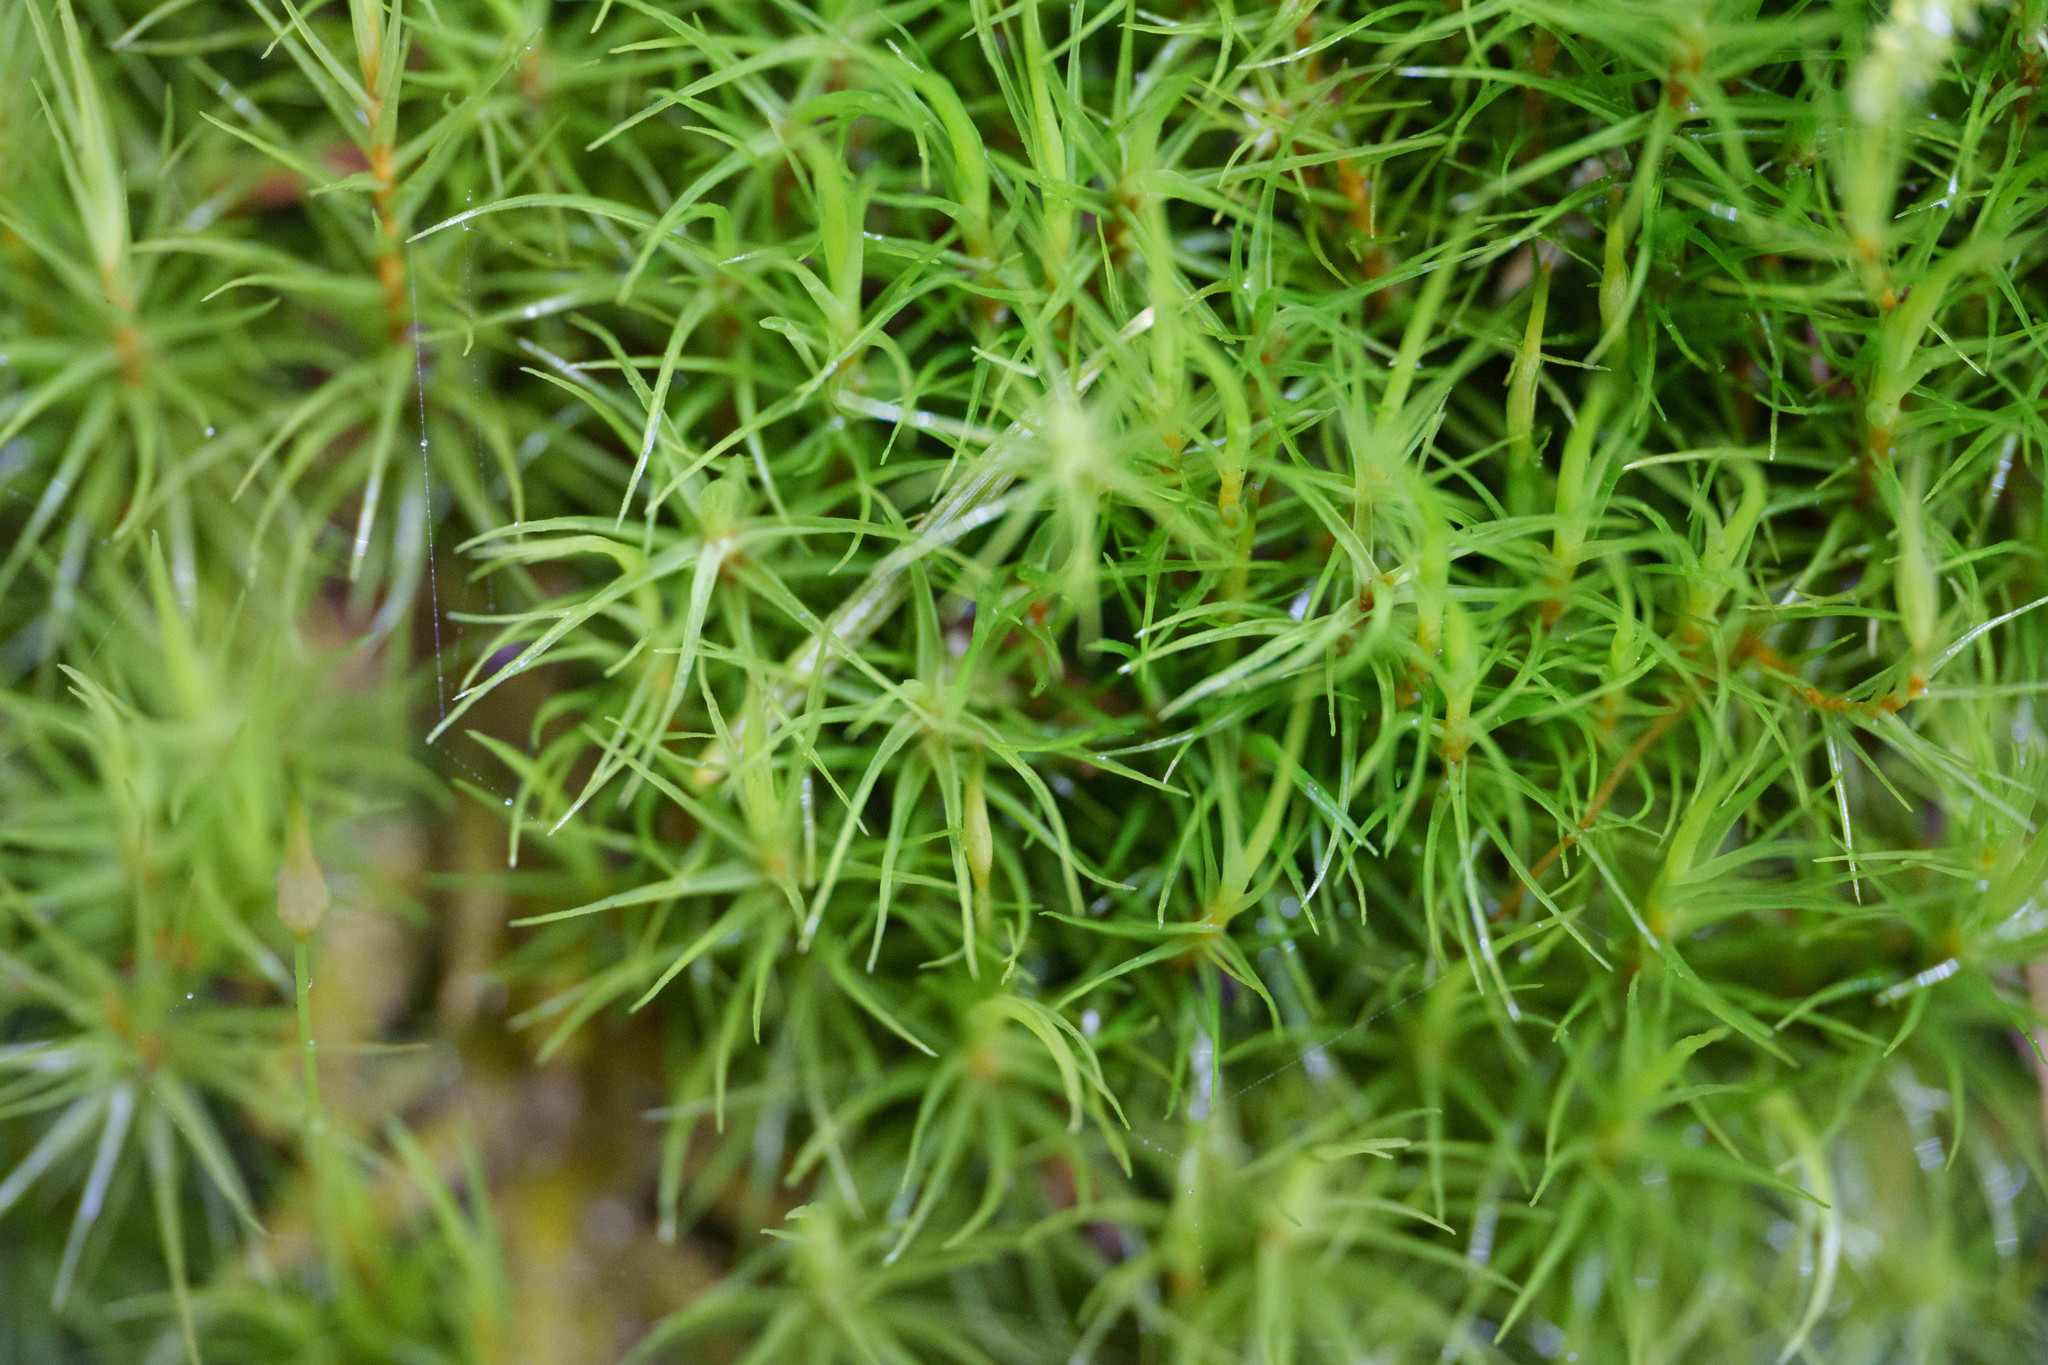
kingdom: Plantae
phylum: Bryophyta
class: Bryopsida
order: Dicranales
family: Dicranaceae
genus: Dicranum
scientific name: Dicranum scoparium
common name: Broom fork-moss
